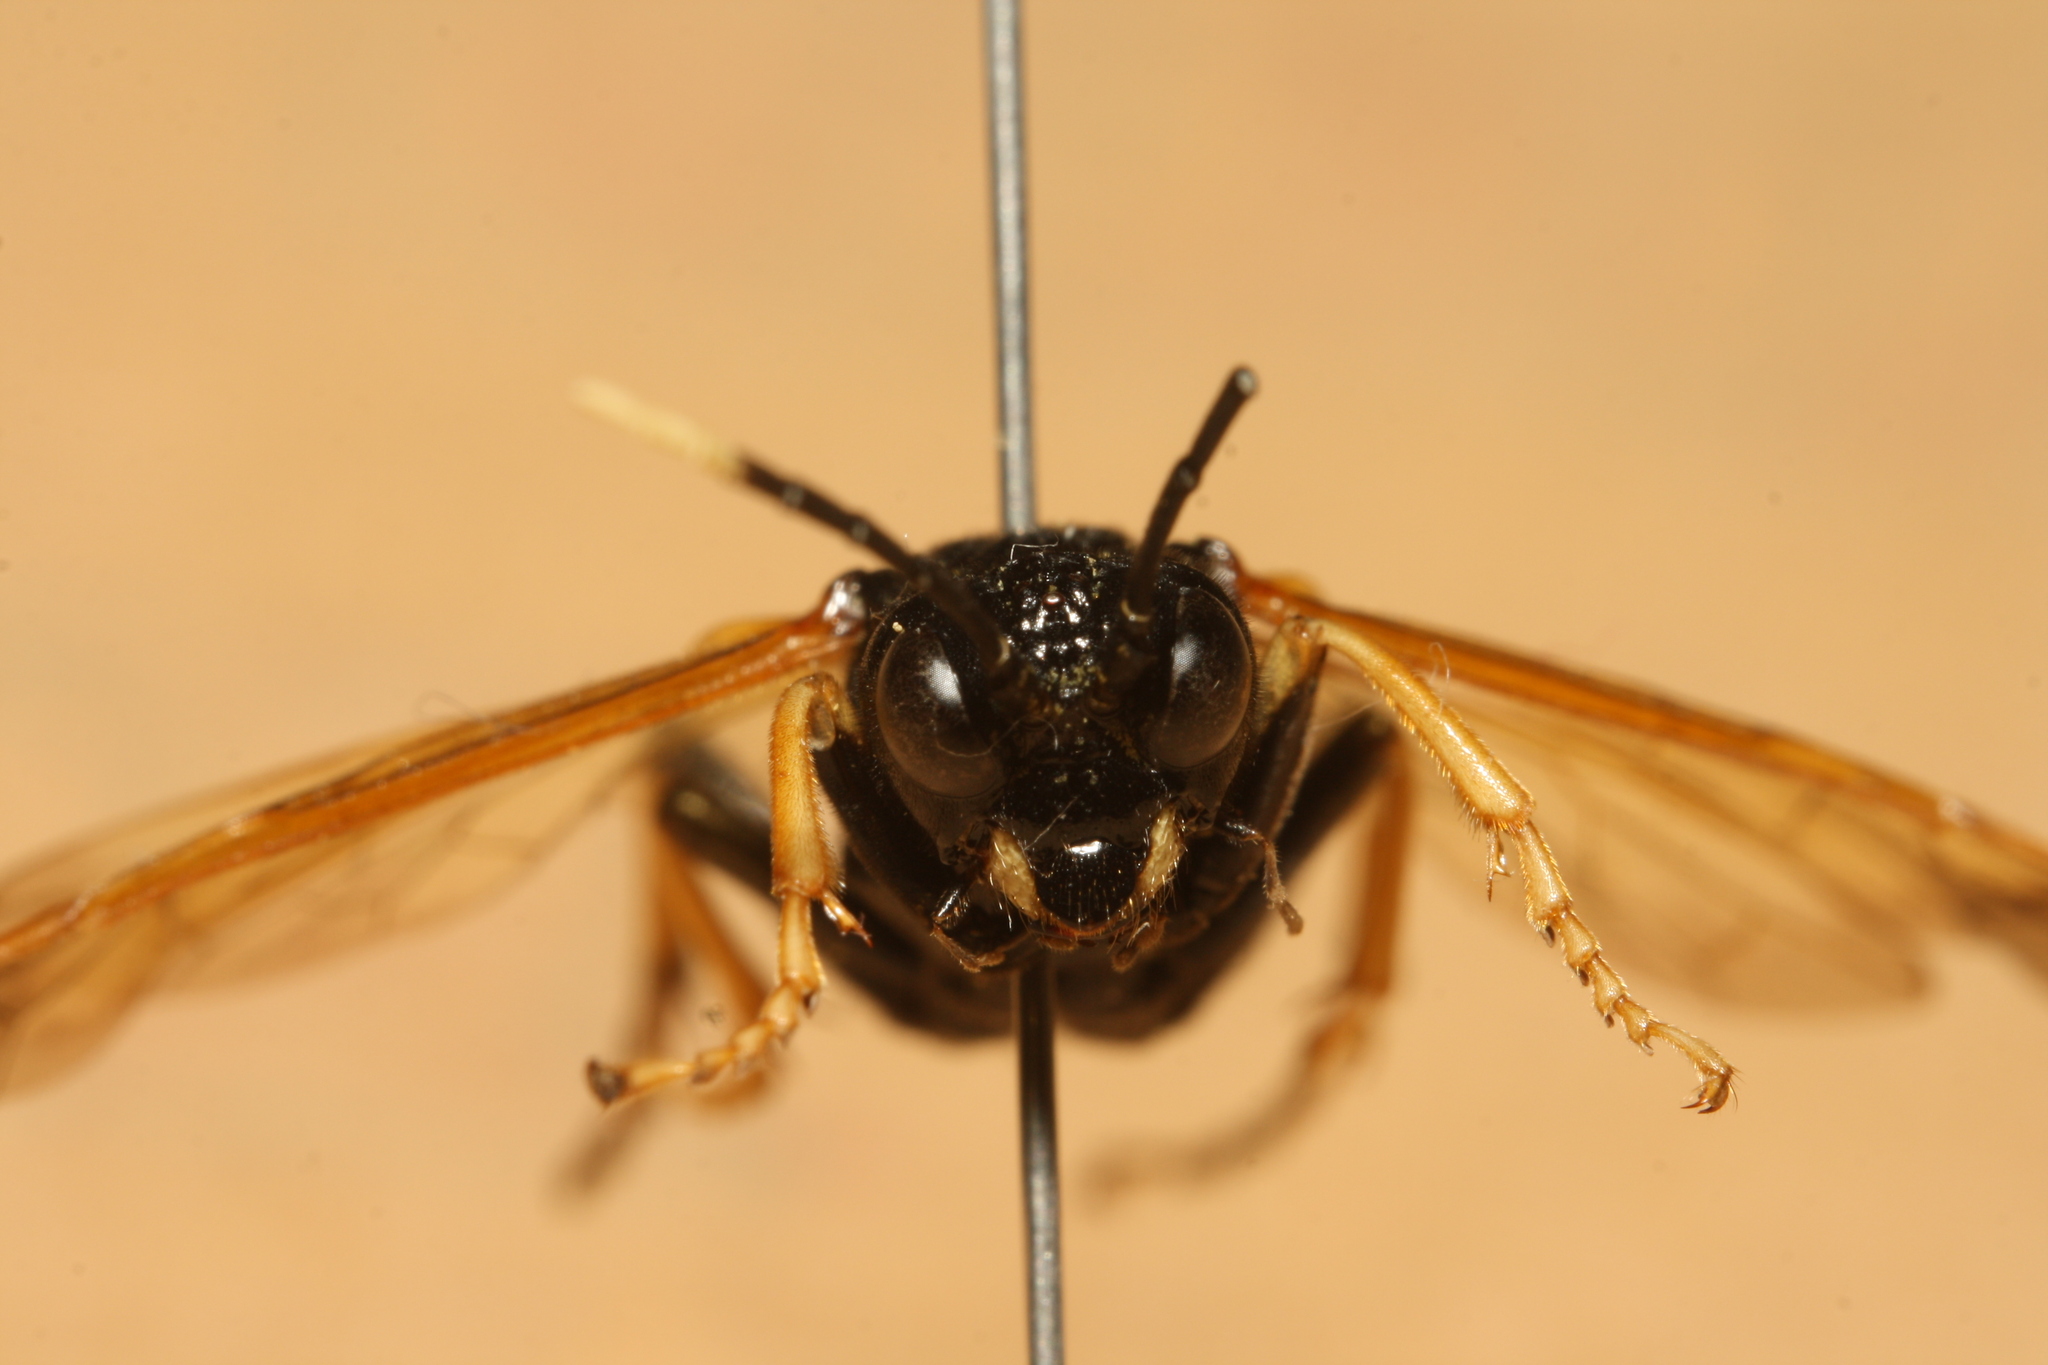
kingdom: Animalia
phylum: Arthropoda
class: Insecta
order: Hymenoptera
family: Tenthredinidae
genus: Tenthredo
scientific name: Tenthredo crassa
